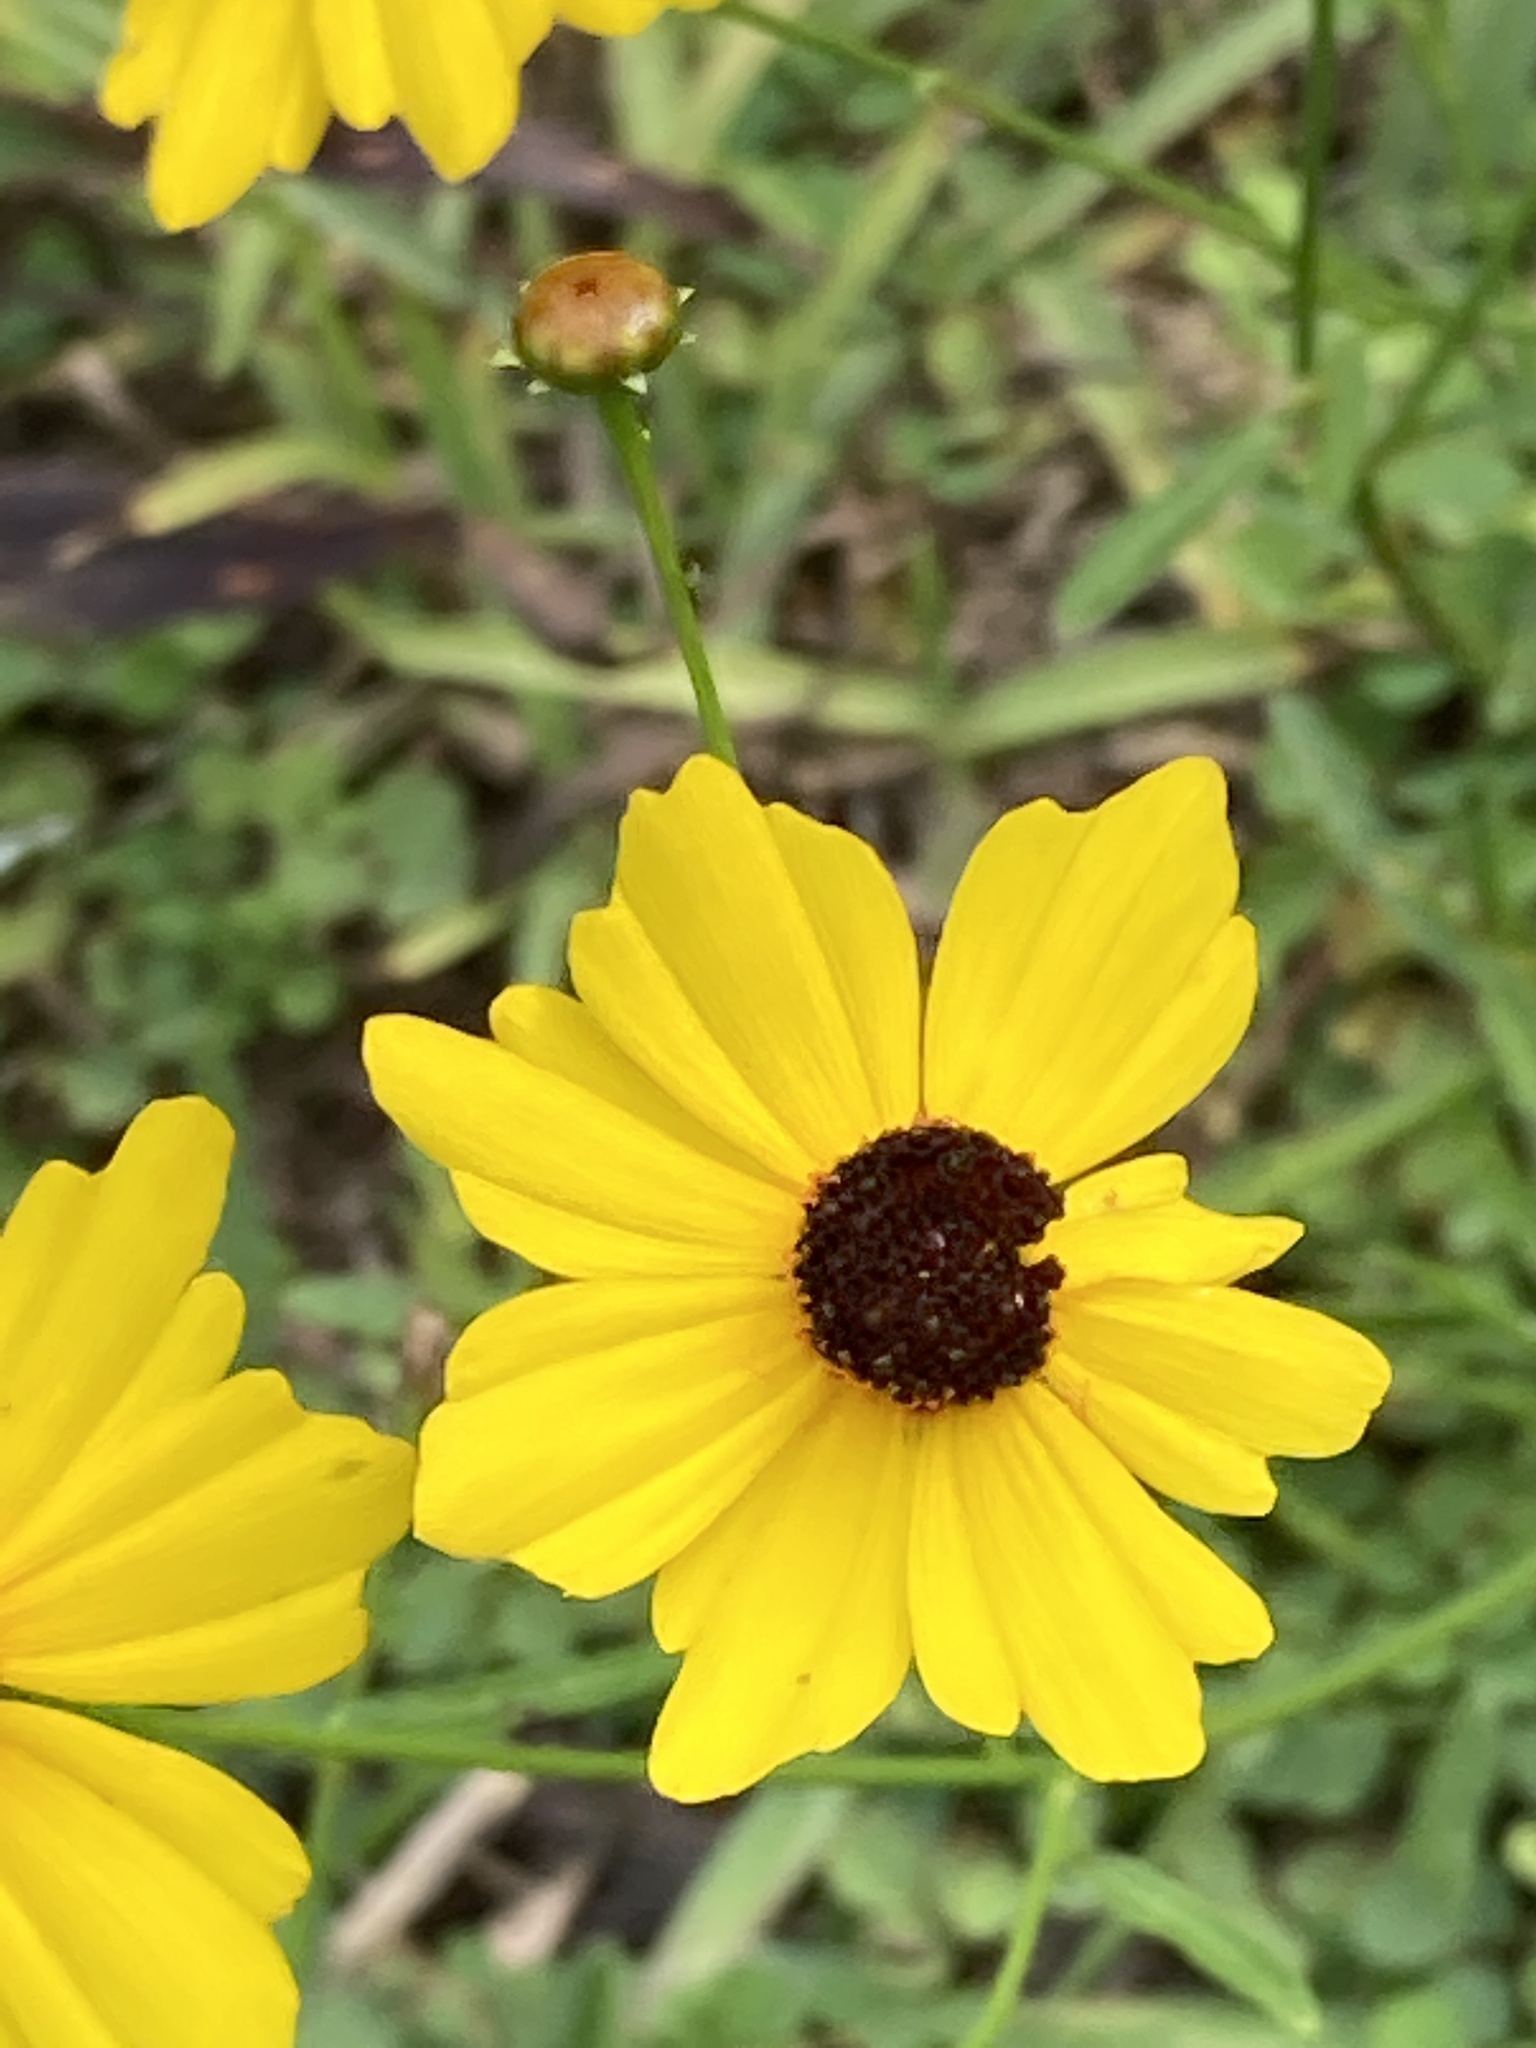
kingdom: Plantae
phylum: Tracheophyta
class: Magnoliopsida
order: Asterales
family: Asteraceae
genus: Coreopsis
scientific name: Coreopsis leavenworthii
